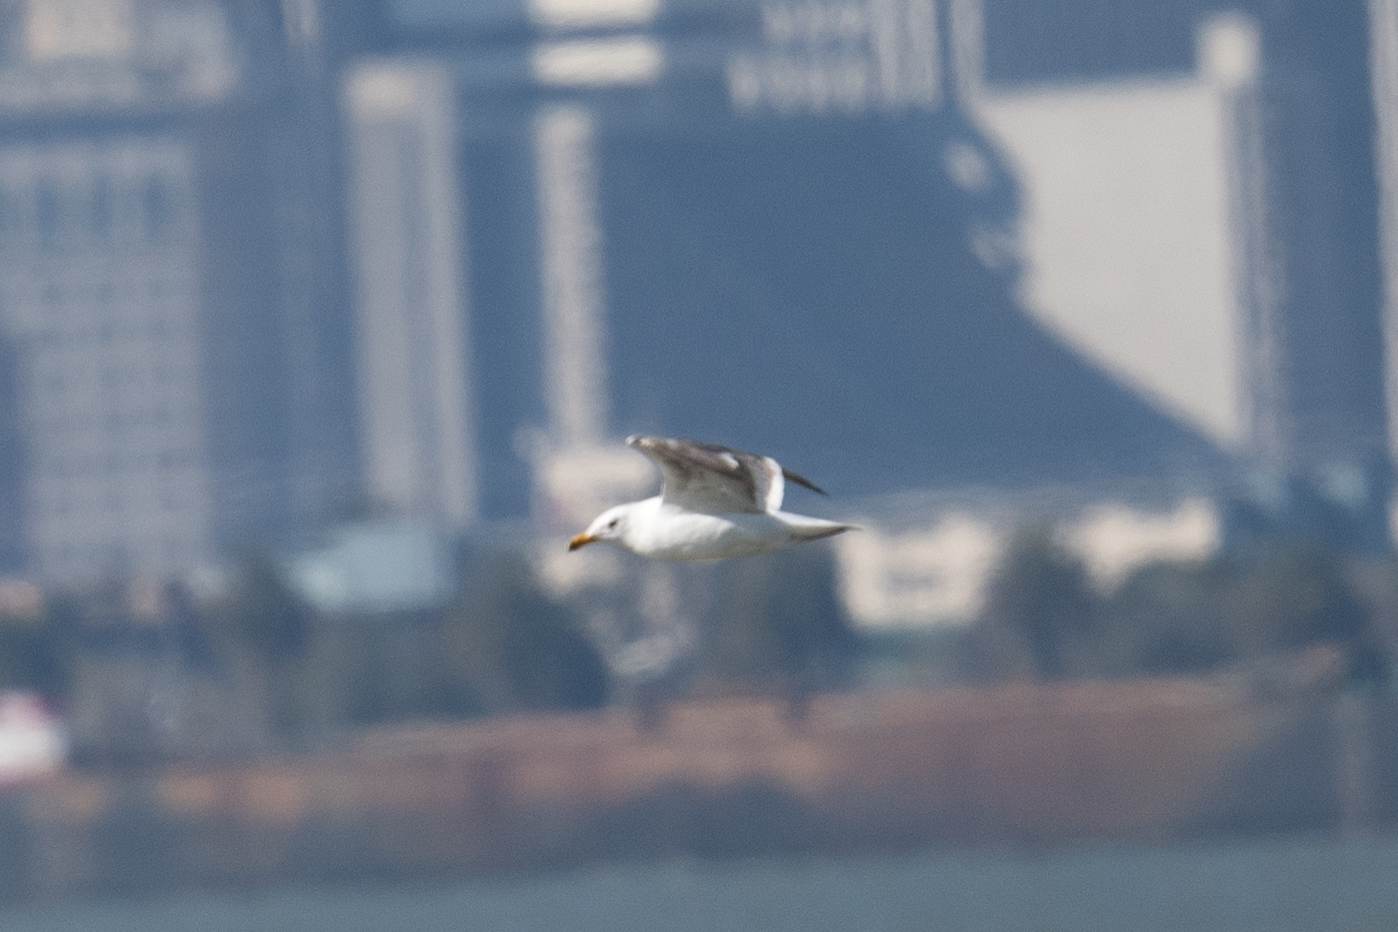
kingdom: Animalia
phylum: Chordata
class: Aves
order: Charadriiformes
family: Laridae
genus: Larus
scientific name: Larus occidentalis
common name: Western gull
